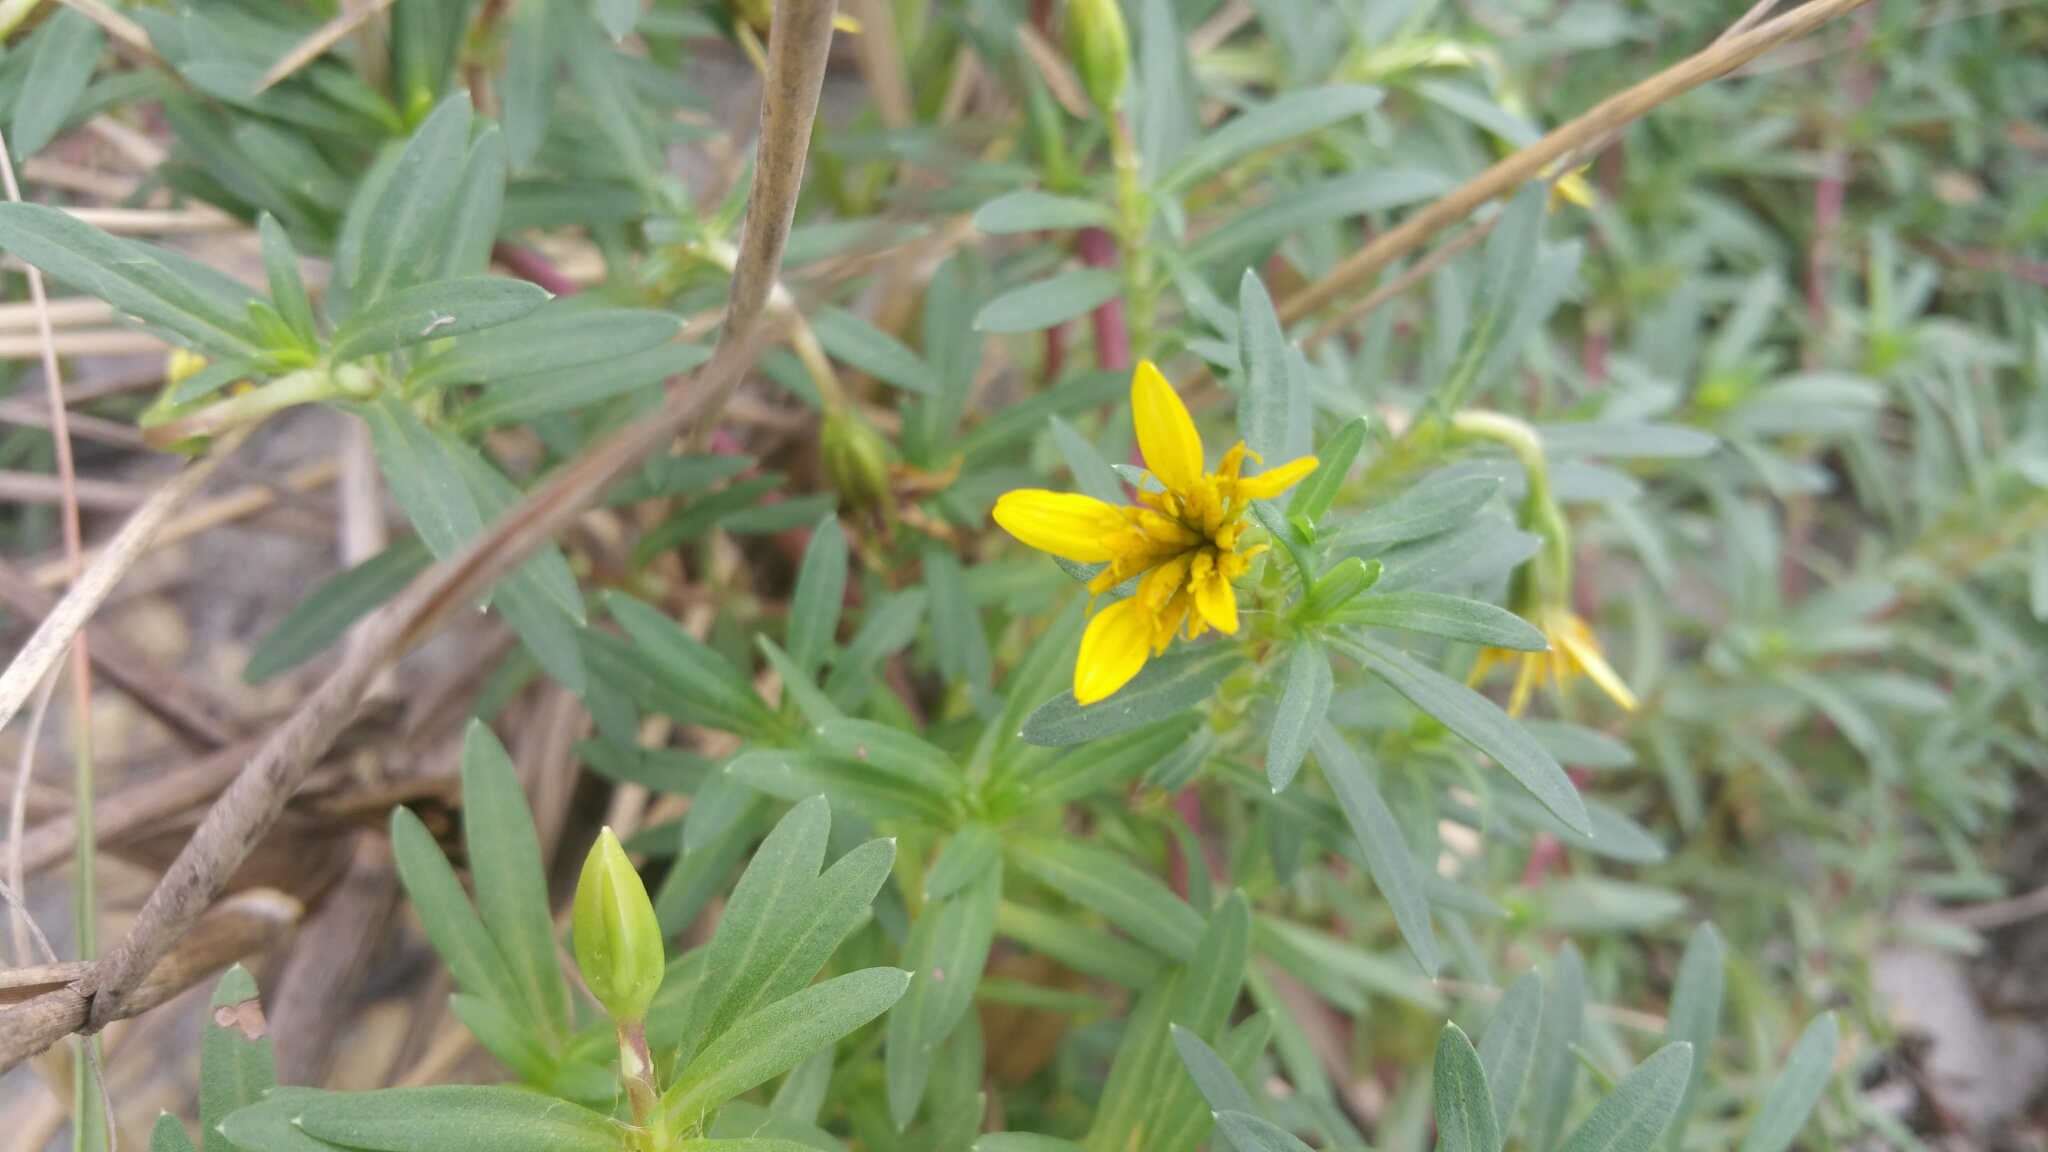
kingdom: Plantae
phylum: Tracheophyta
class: Magnoliopsida
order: Asterales
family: Asteraceae
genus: Pectis
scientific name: Pectis multiflosculosa
